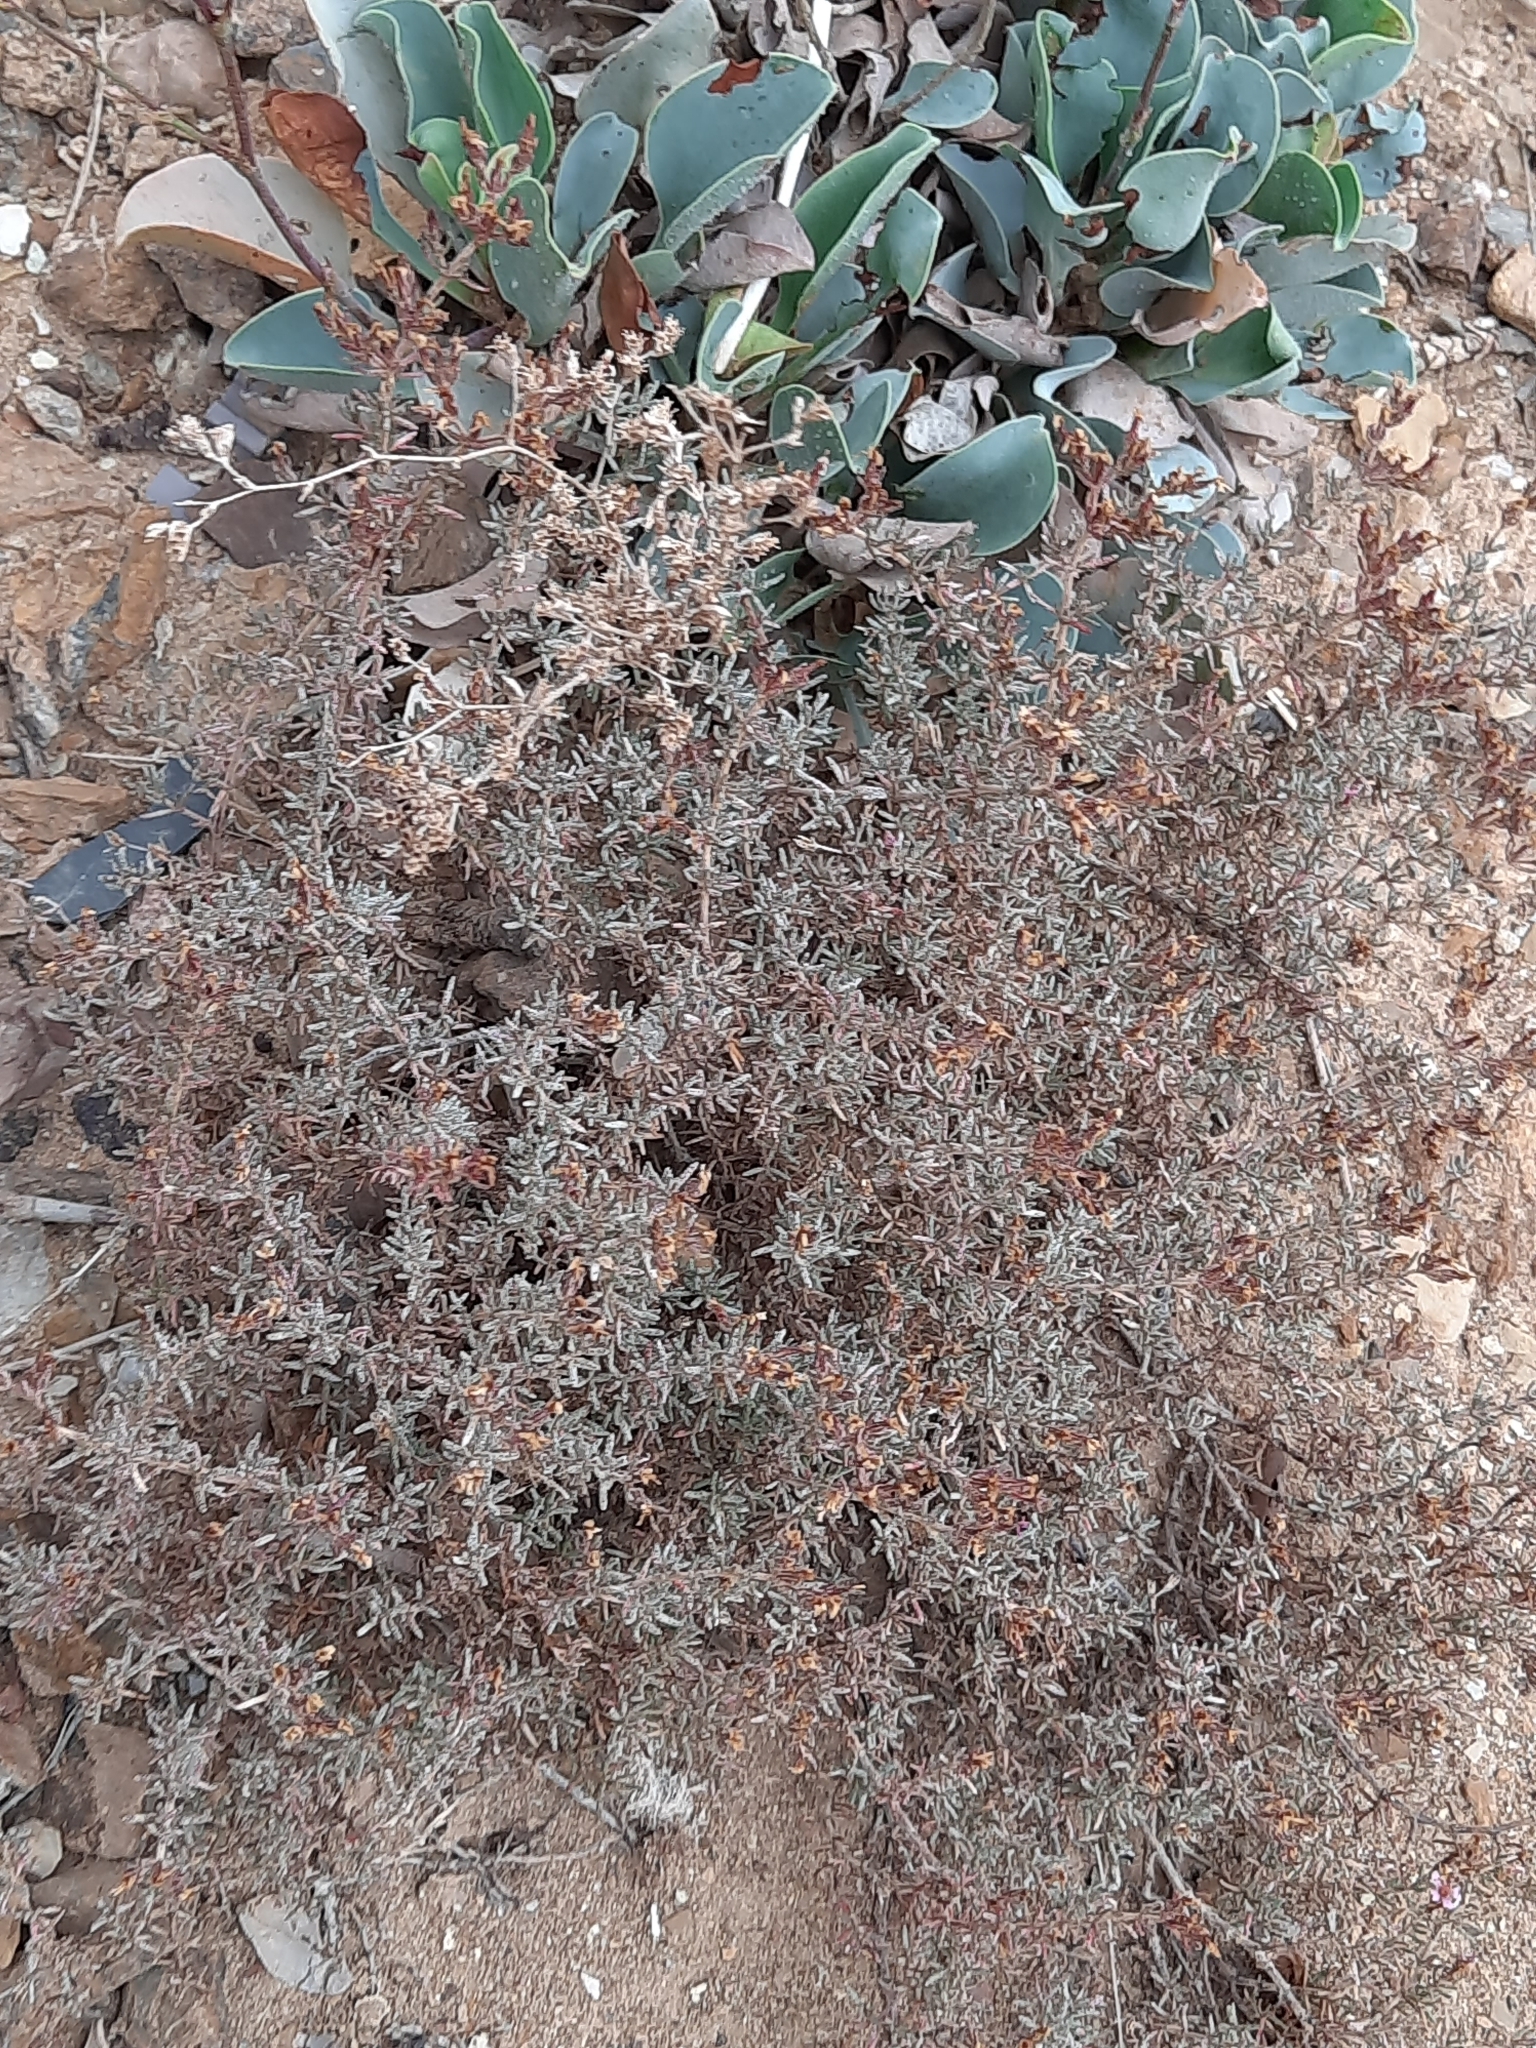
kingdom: Plantae
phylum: Tracheophyta
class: Magnoliopsida
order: Caryophyllales
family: Frankeniaceae
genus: Frankenia
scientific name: Frankenia corymbosa
